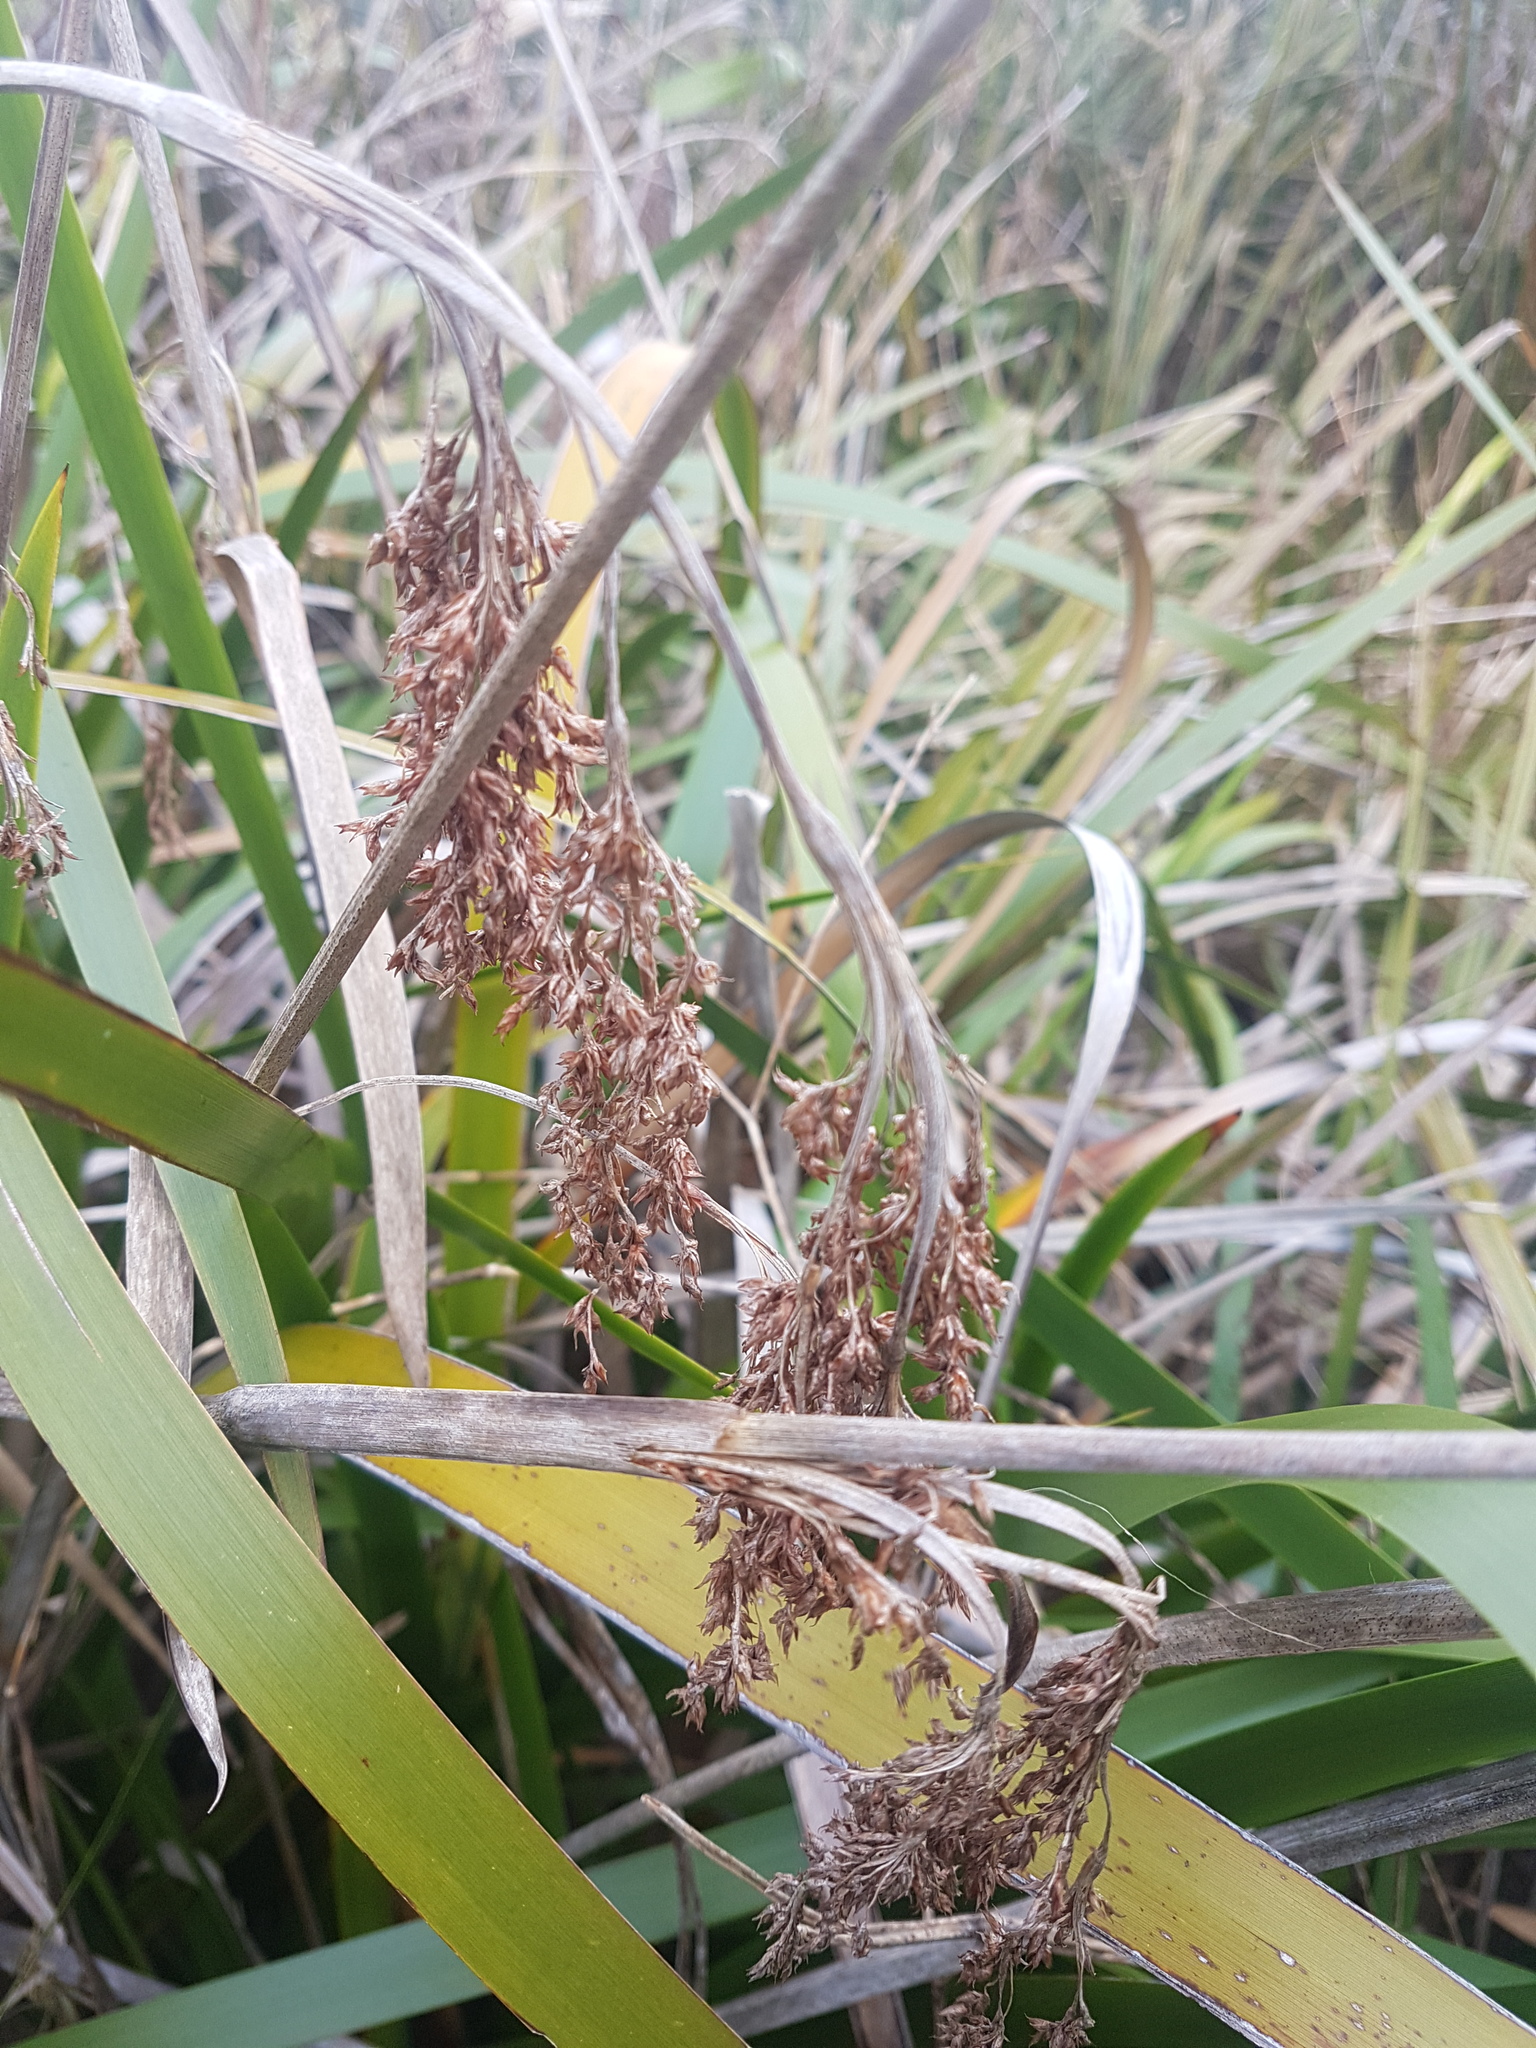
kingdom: Plantae
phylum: Tracheophyta
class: Liliopsida
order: Poales
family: Cyperaceae
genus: Machaerina
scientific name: Machaerina sinclairii
